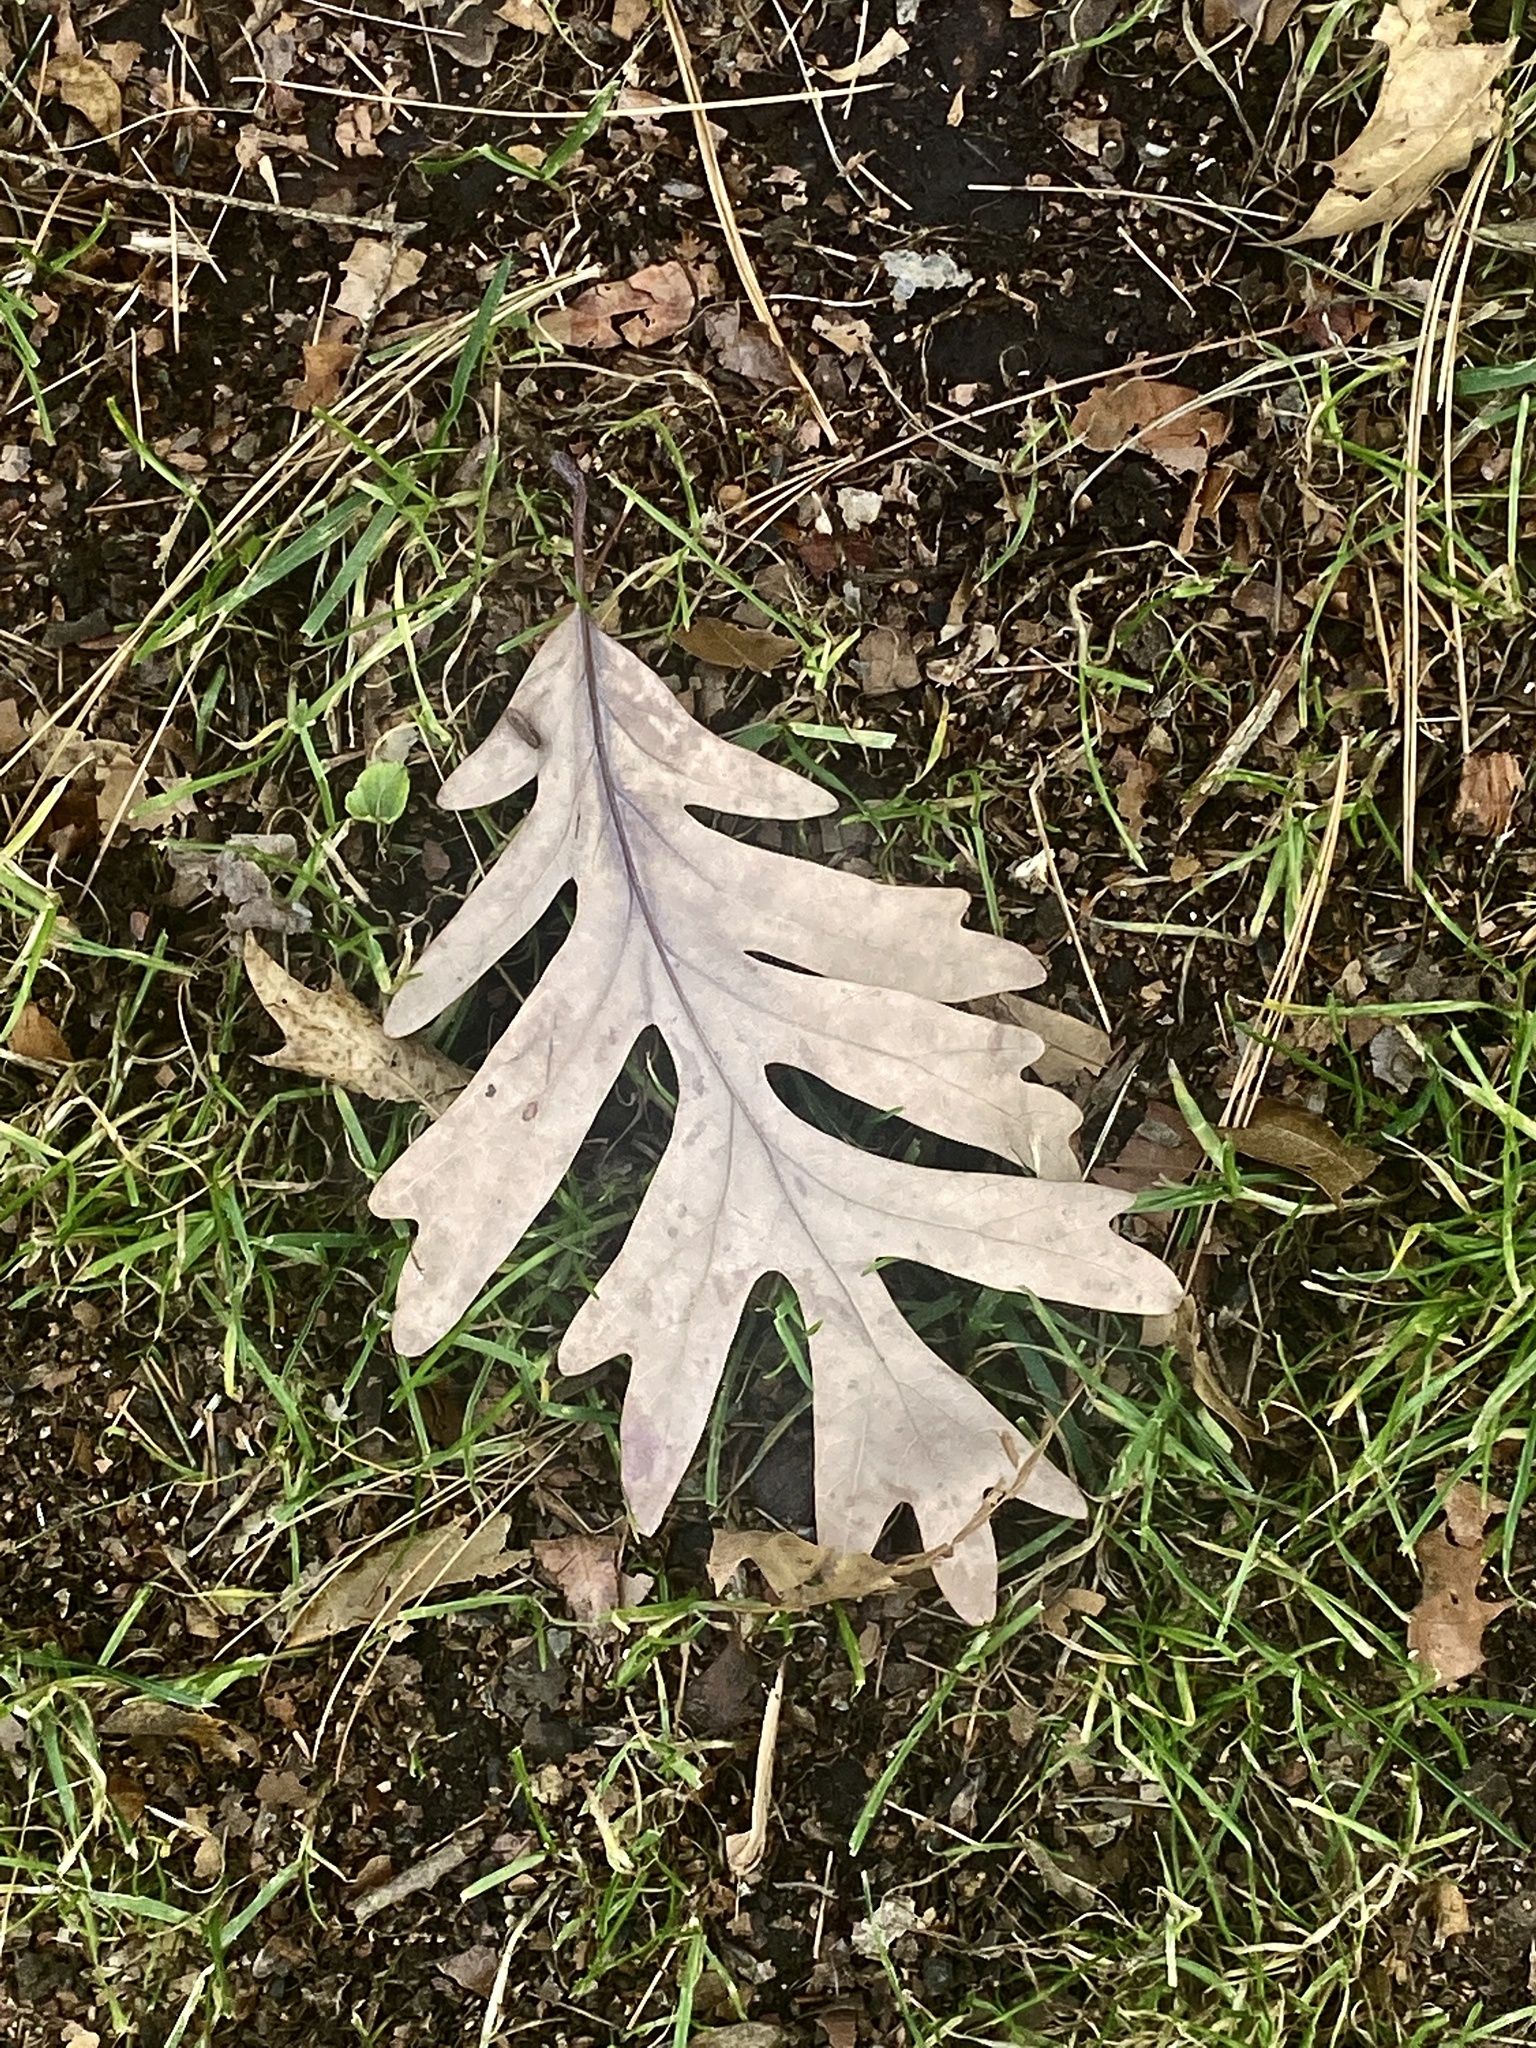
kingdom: Plantae
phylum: Tracheophyta
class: Magnoliopsida
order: Fagales
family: Fagaceae
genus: Quercus
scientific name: Quercus alba
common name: White oak
